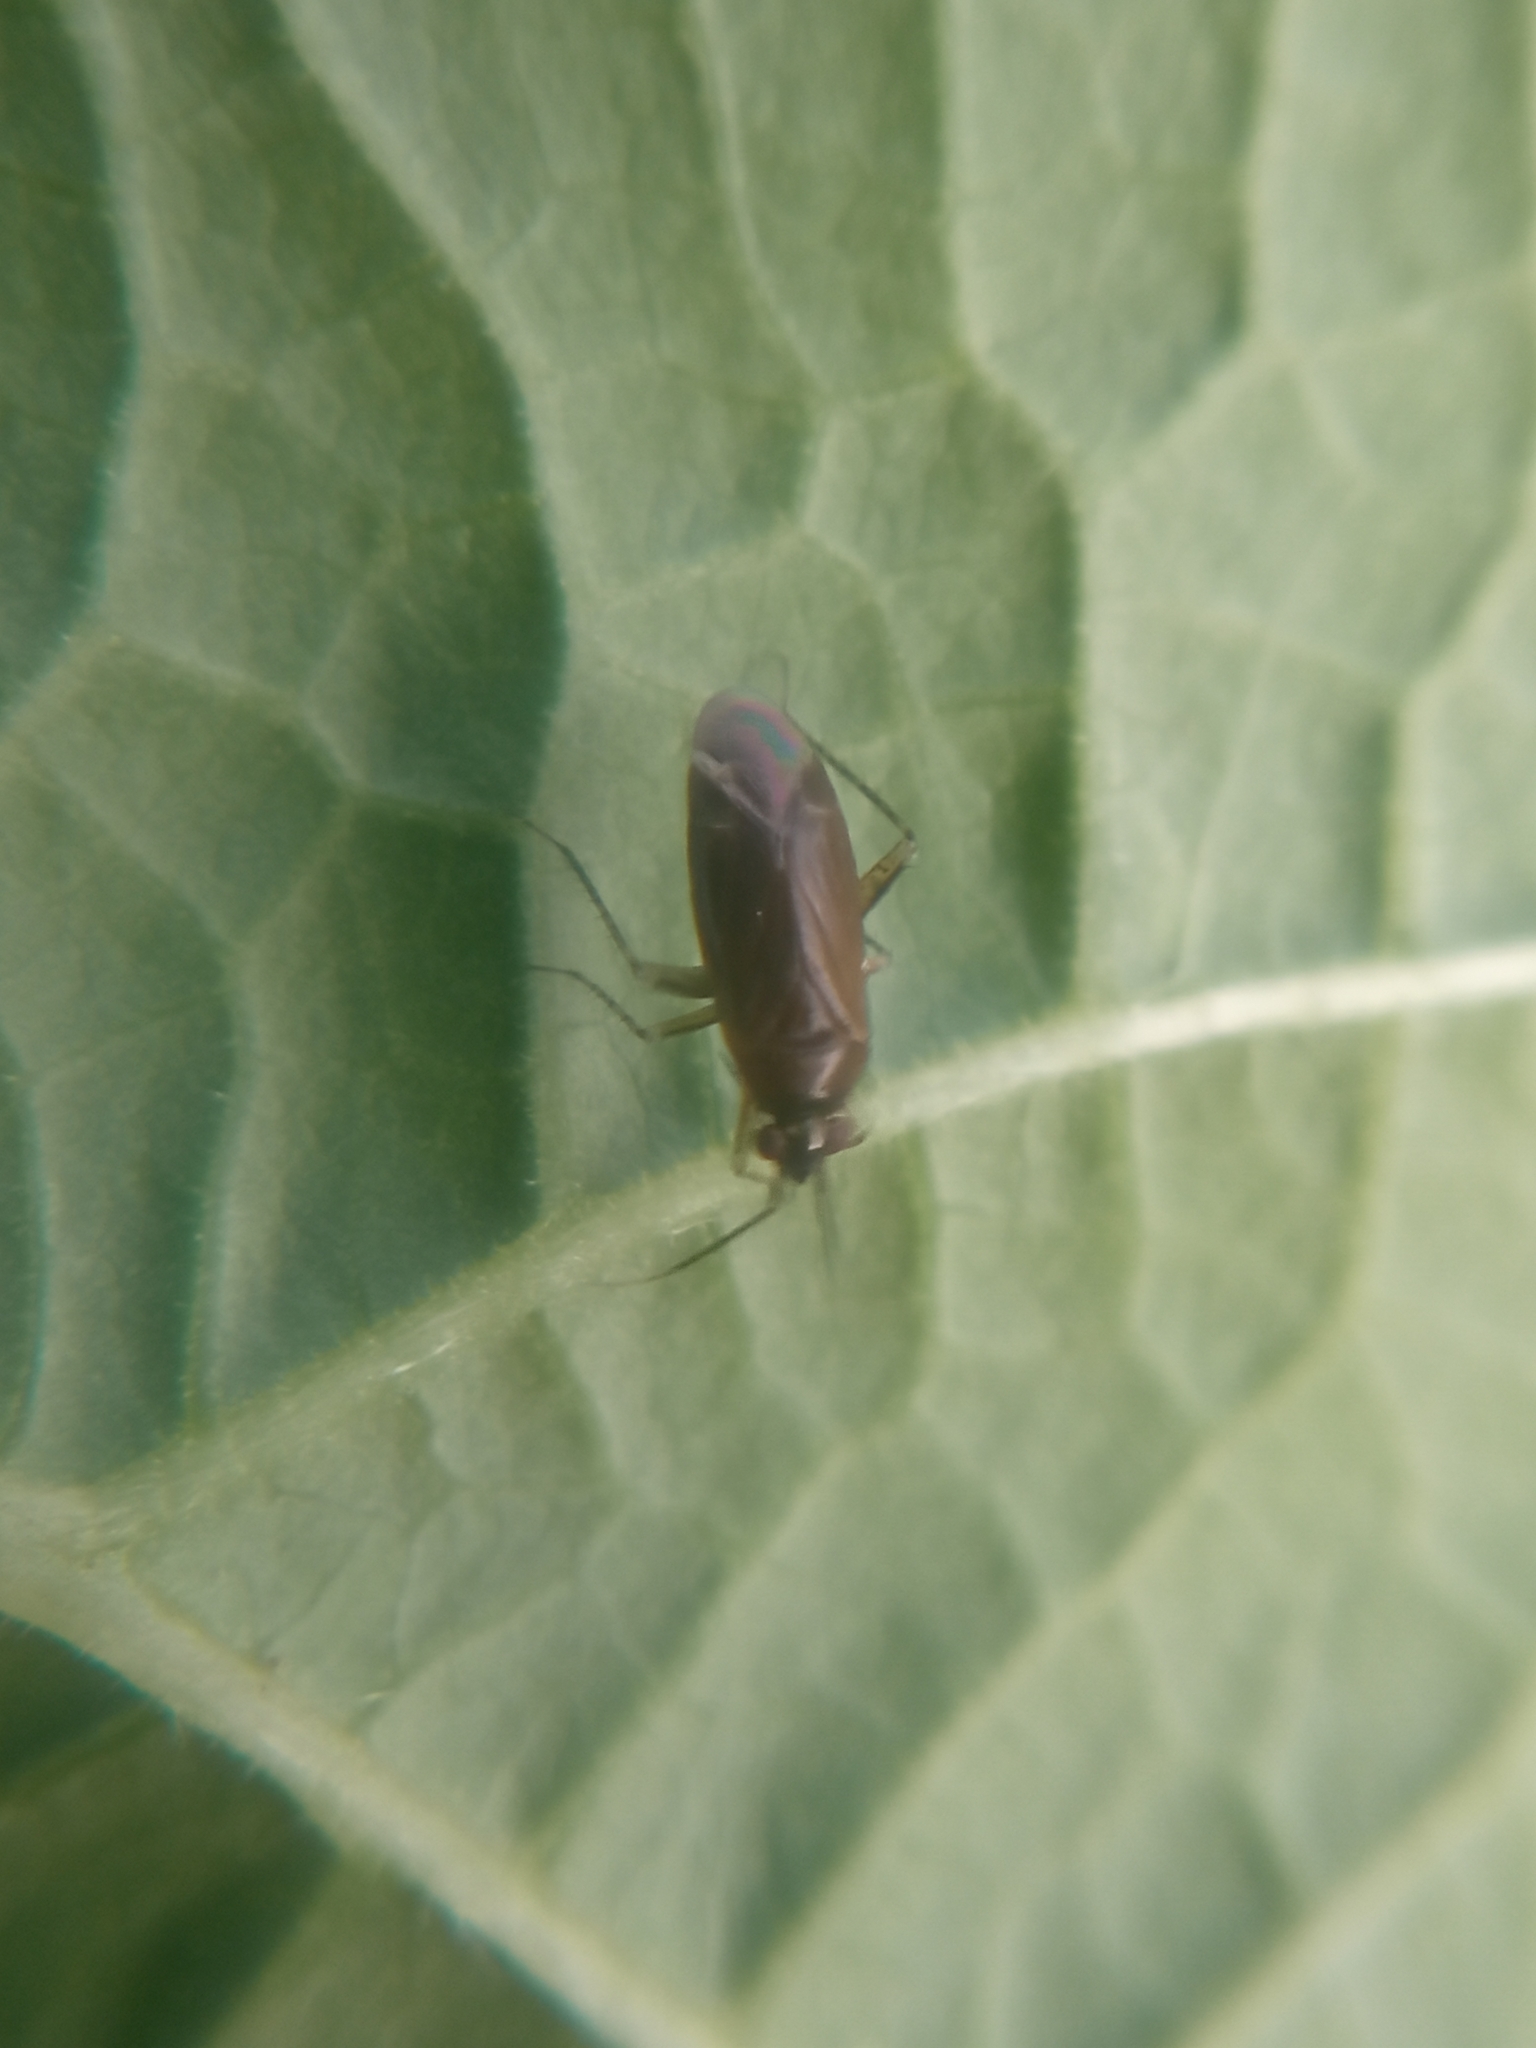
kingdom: Animalia
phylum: Arthropoda
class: Insecta
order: Hemiptera
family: Miridae
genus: Plagiognathus
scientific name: Plagiognathus arbustorum
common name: Plant bug
